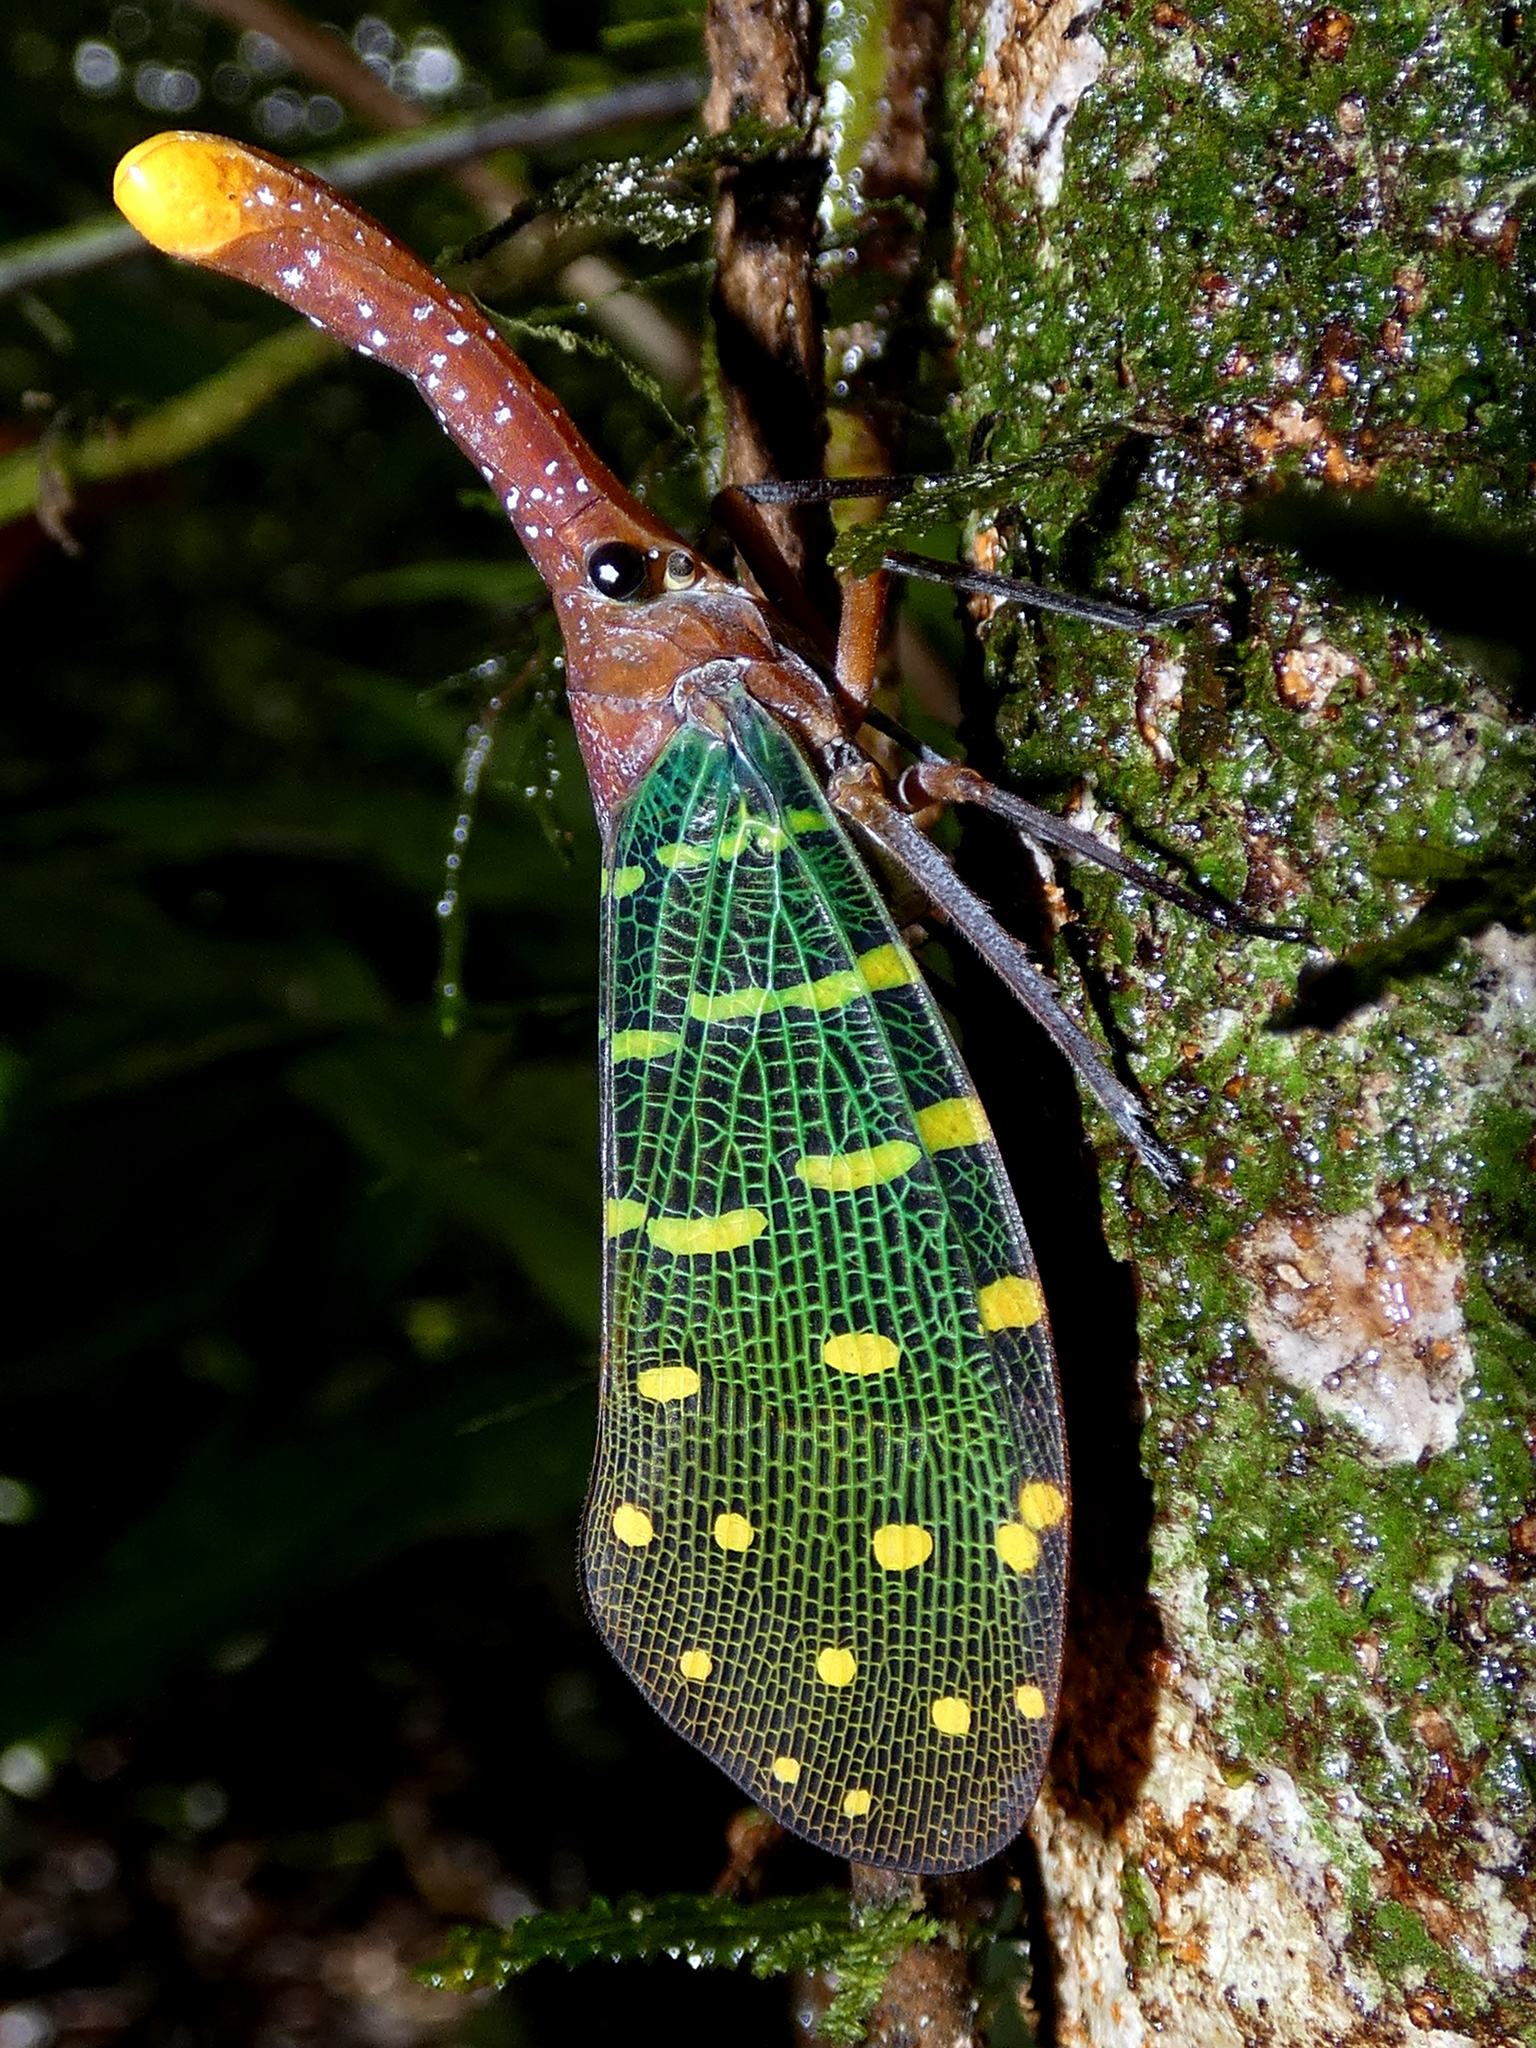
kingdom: Animalia
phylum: Arthropoda
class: Insecta
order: Hemiptera
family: Fulgoridae
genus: Pyrops
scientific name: Pyrops intricatus
